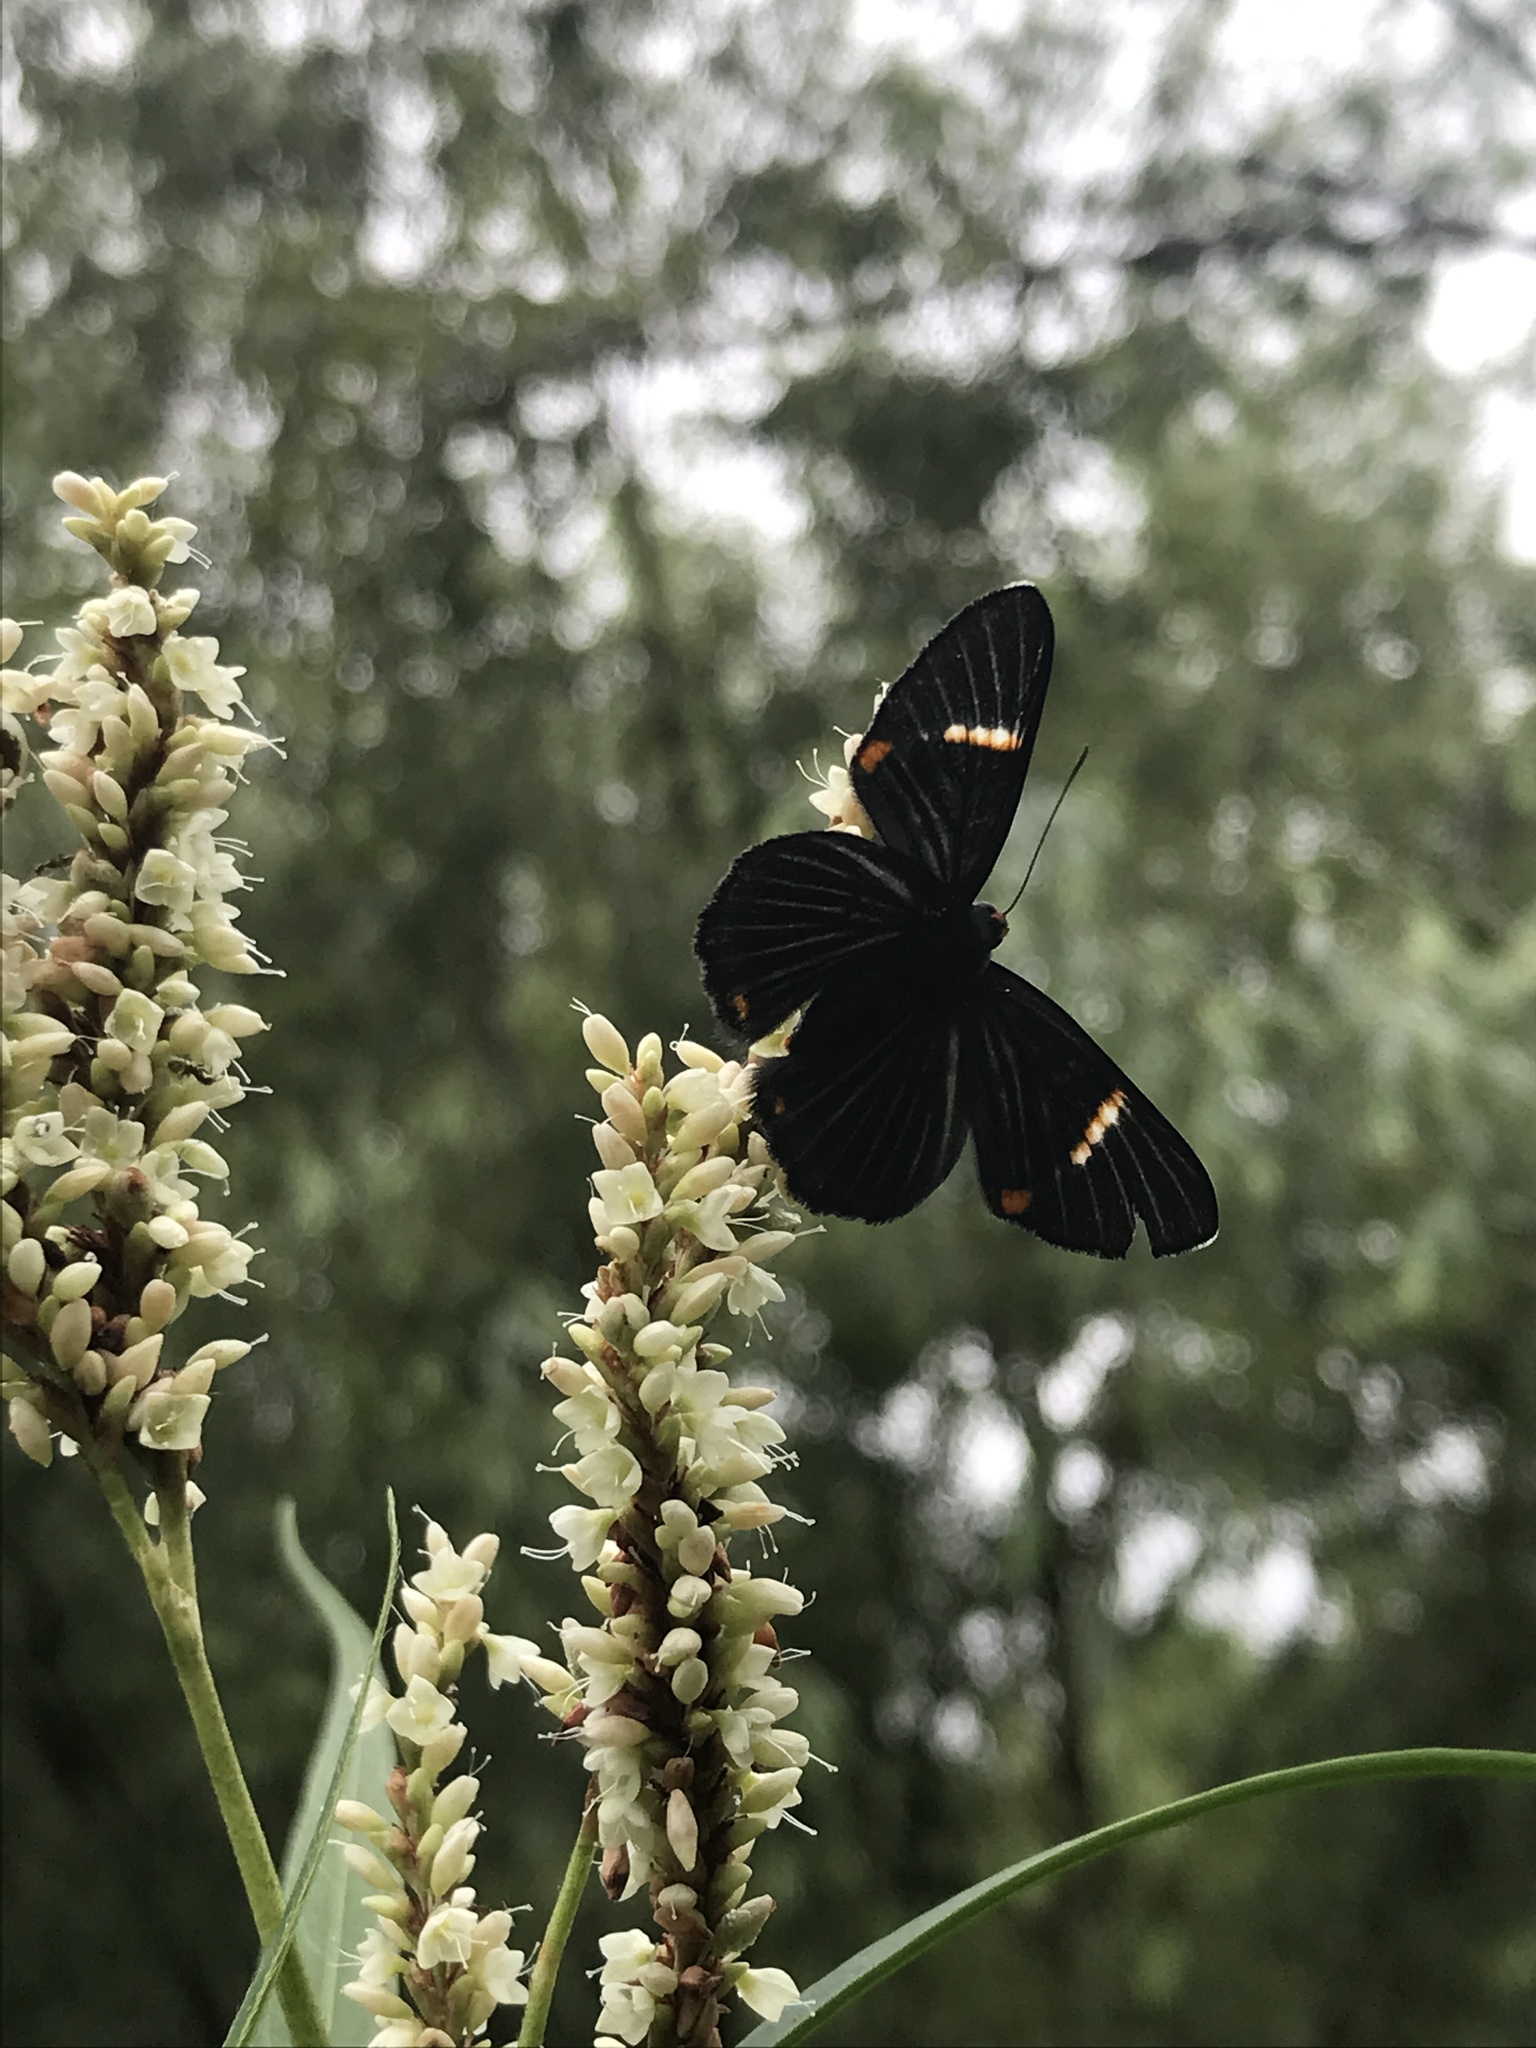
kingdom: Animalia
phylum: Arthropoda
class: Insecta
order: Lepidoptera
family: Riodinidae
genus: Riodina
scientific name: Riodina lycisca
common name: Lycisca metalmark
